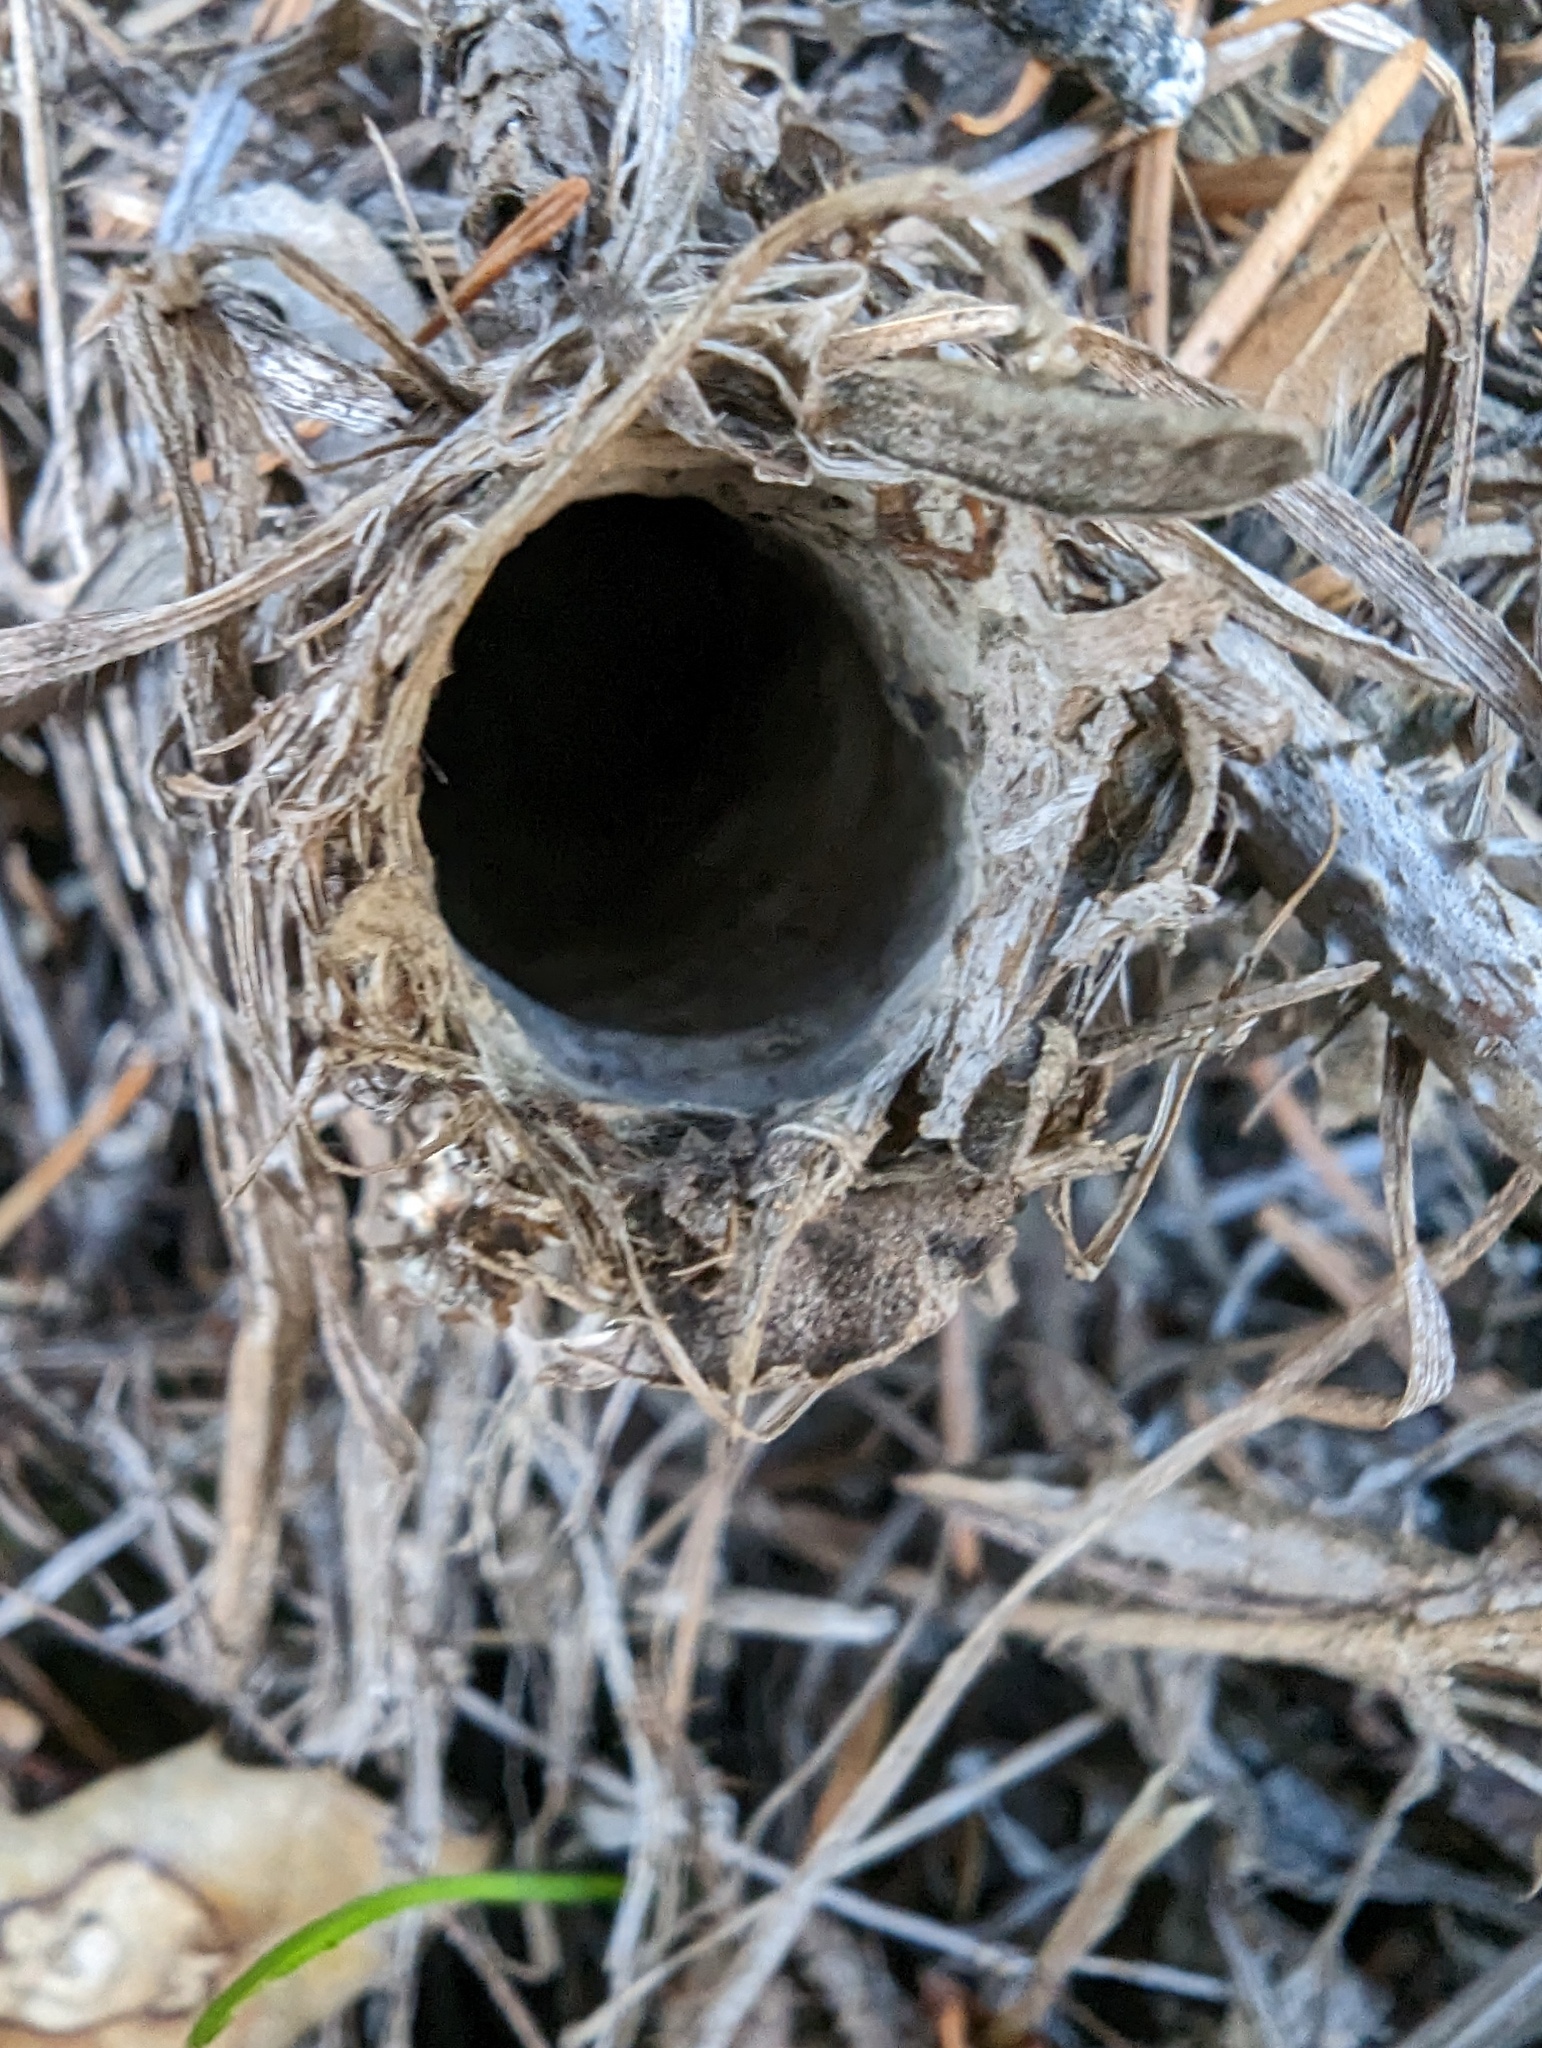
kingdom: Animalia
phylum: Arthropoda
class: Arachnida
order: Araneae
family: Antrodiaetidae
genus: Atypoides
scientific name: Atypoides riversi
